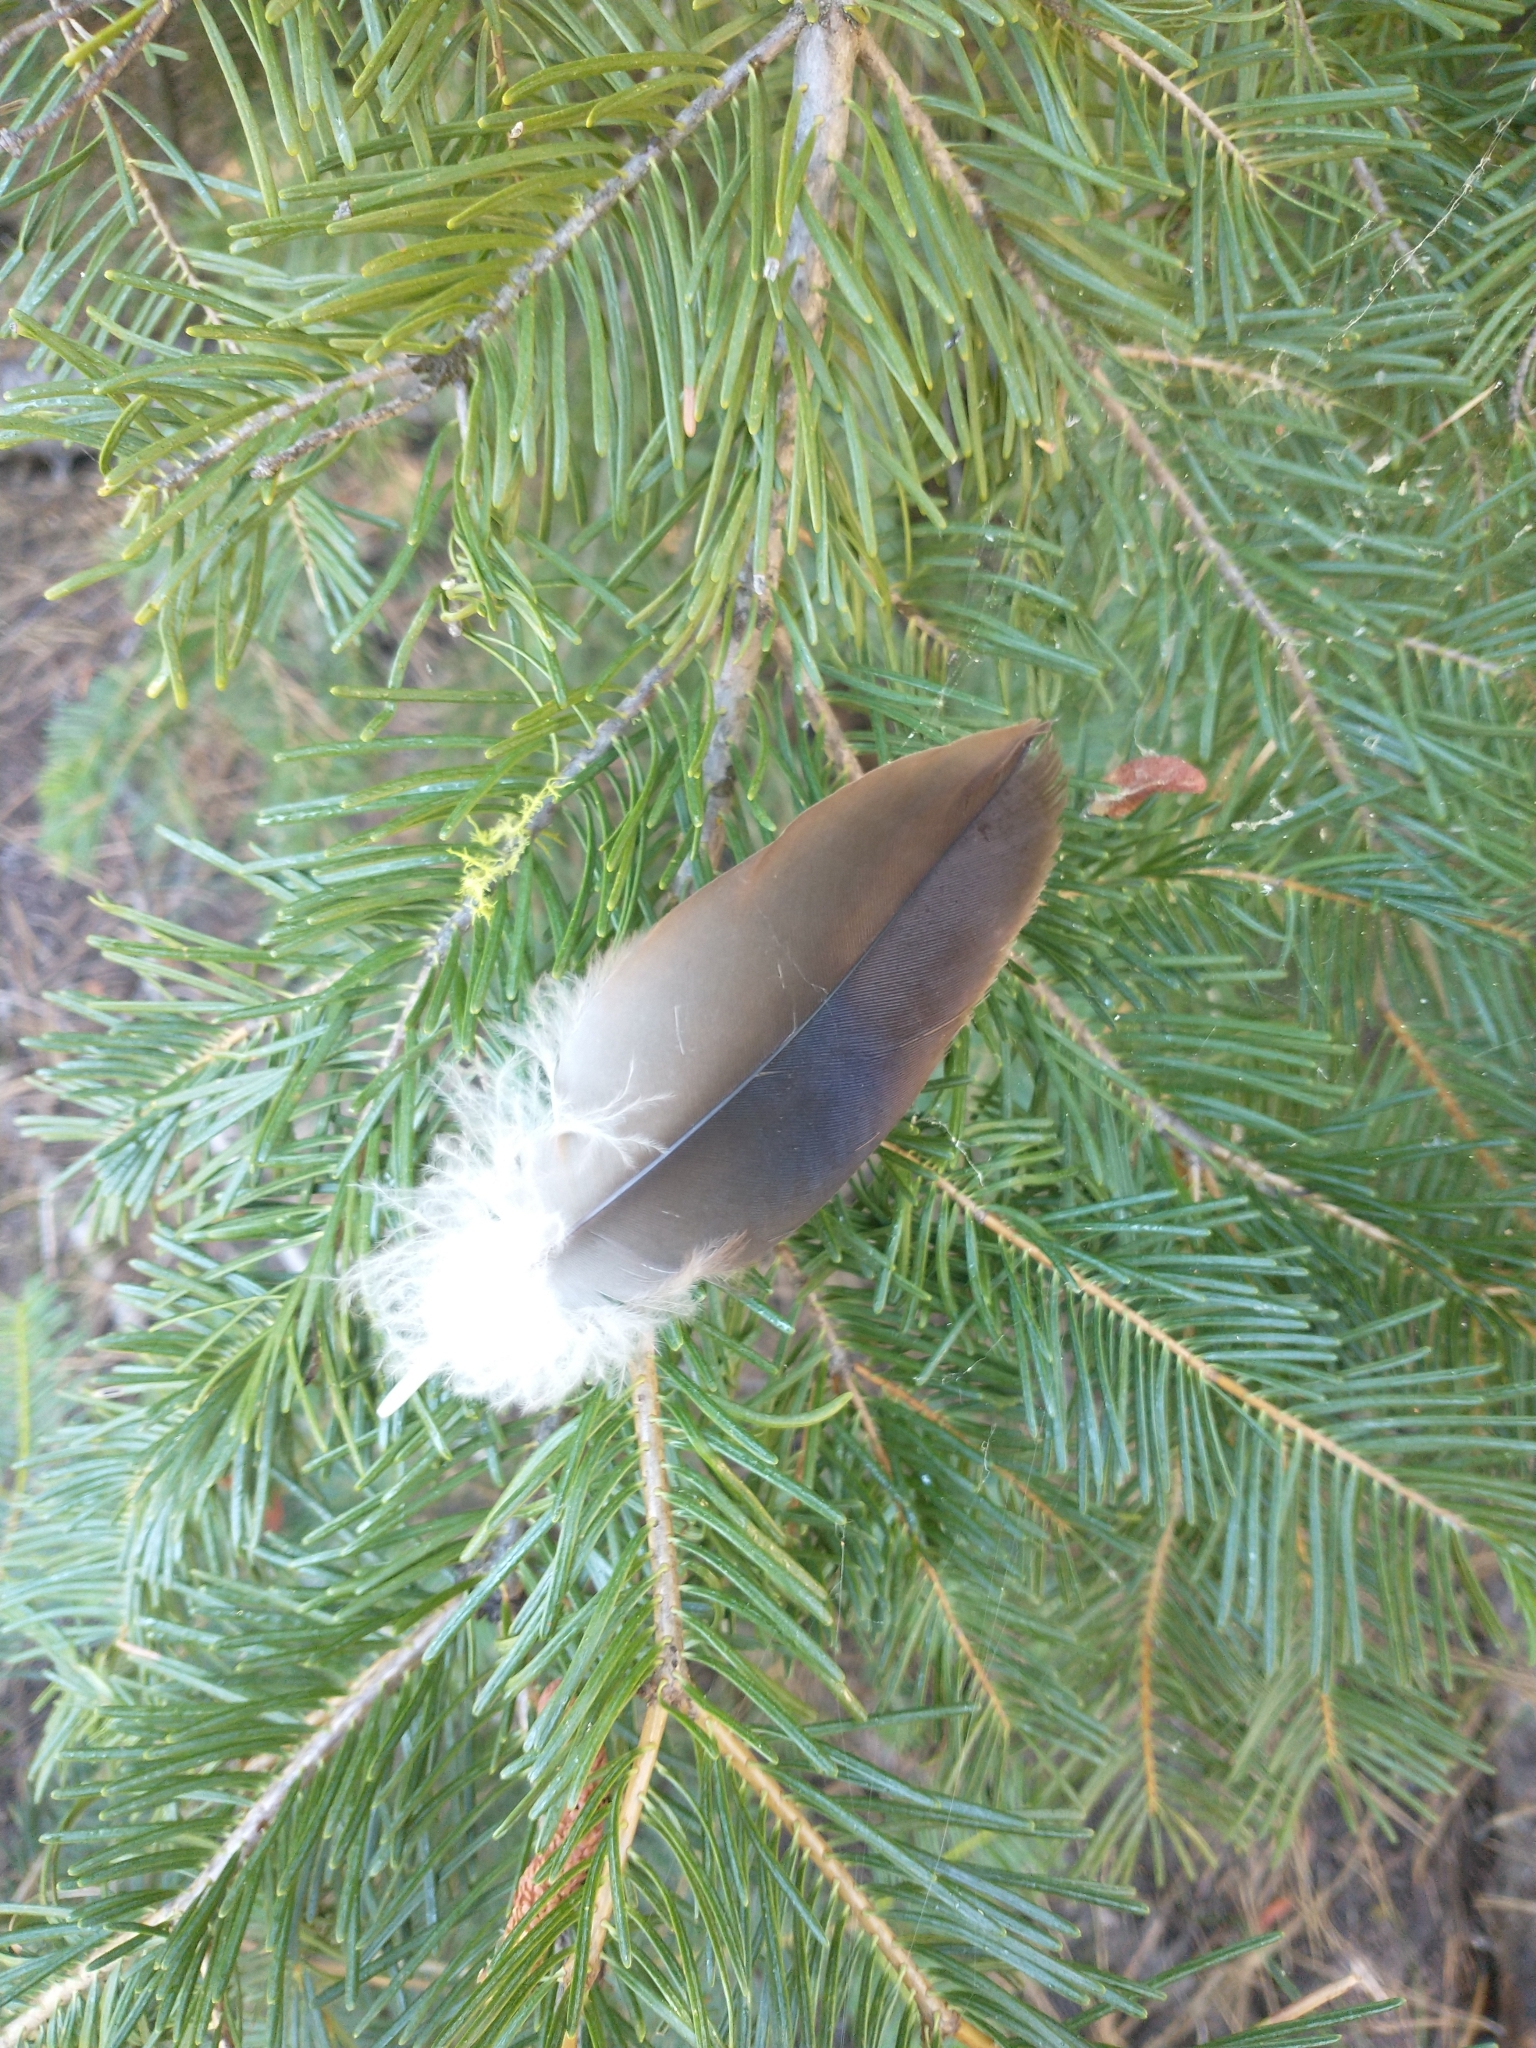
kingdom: Animalia
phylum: Chordata
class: Aves
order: Accipitriformes
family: Cathartidae
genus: Cathartes
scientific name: Cathartes aura
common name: Turkey vulture
